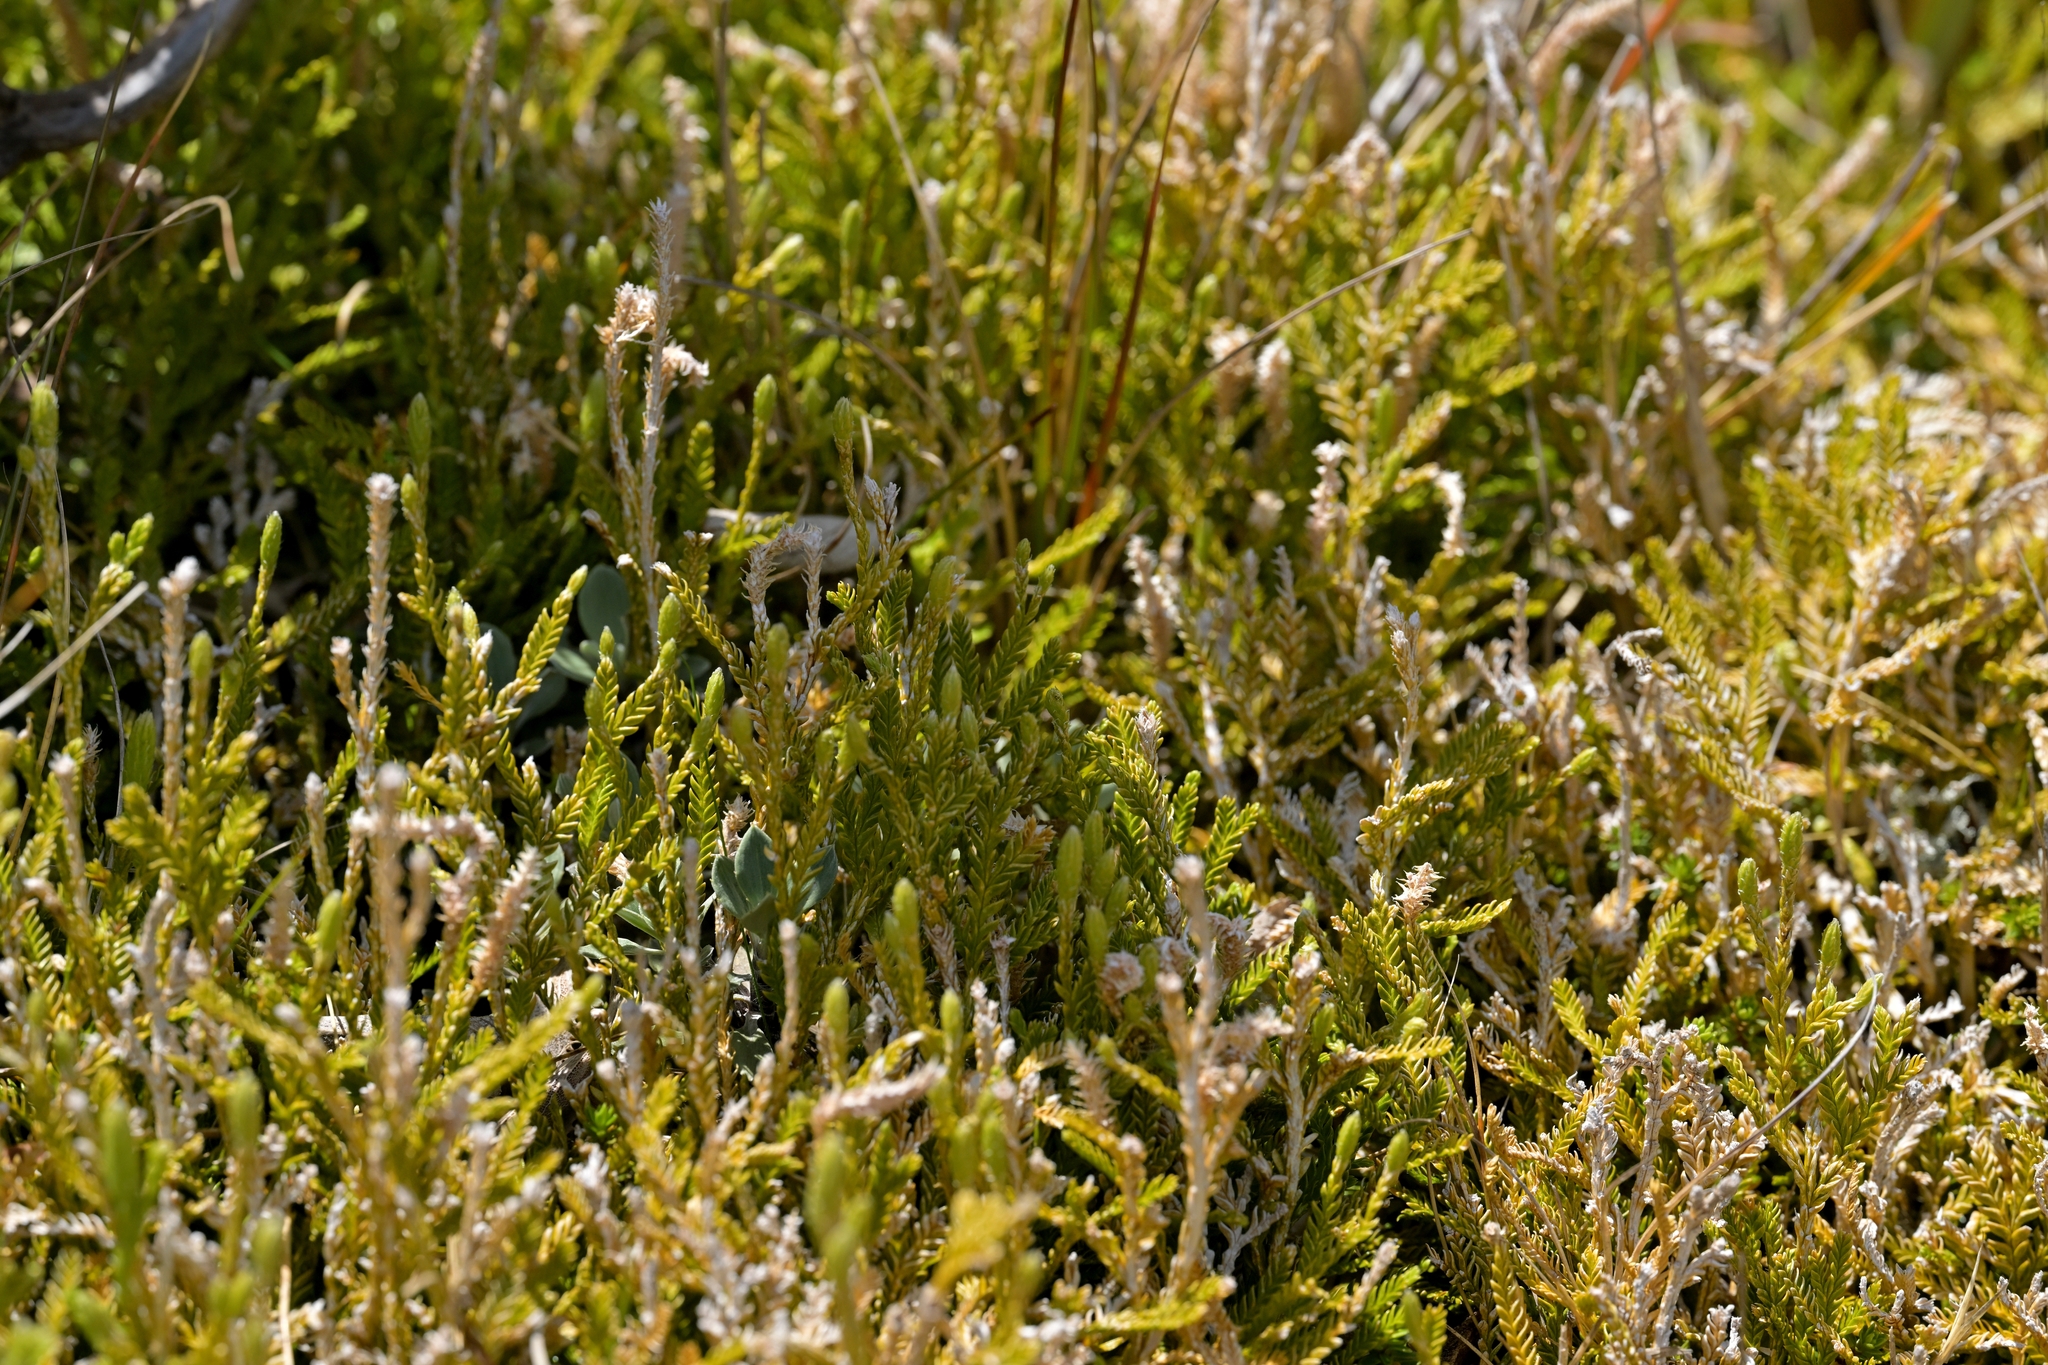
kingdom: Plantae
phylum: Tracheophyta
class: Lycopodiopsida
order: Lycopodiales
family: Lycopodiaceae
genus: Diphasium
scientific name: Diphasium scariosum
